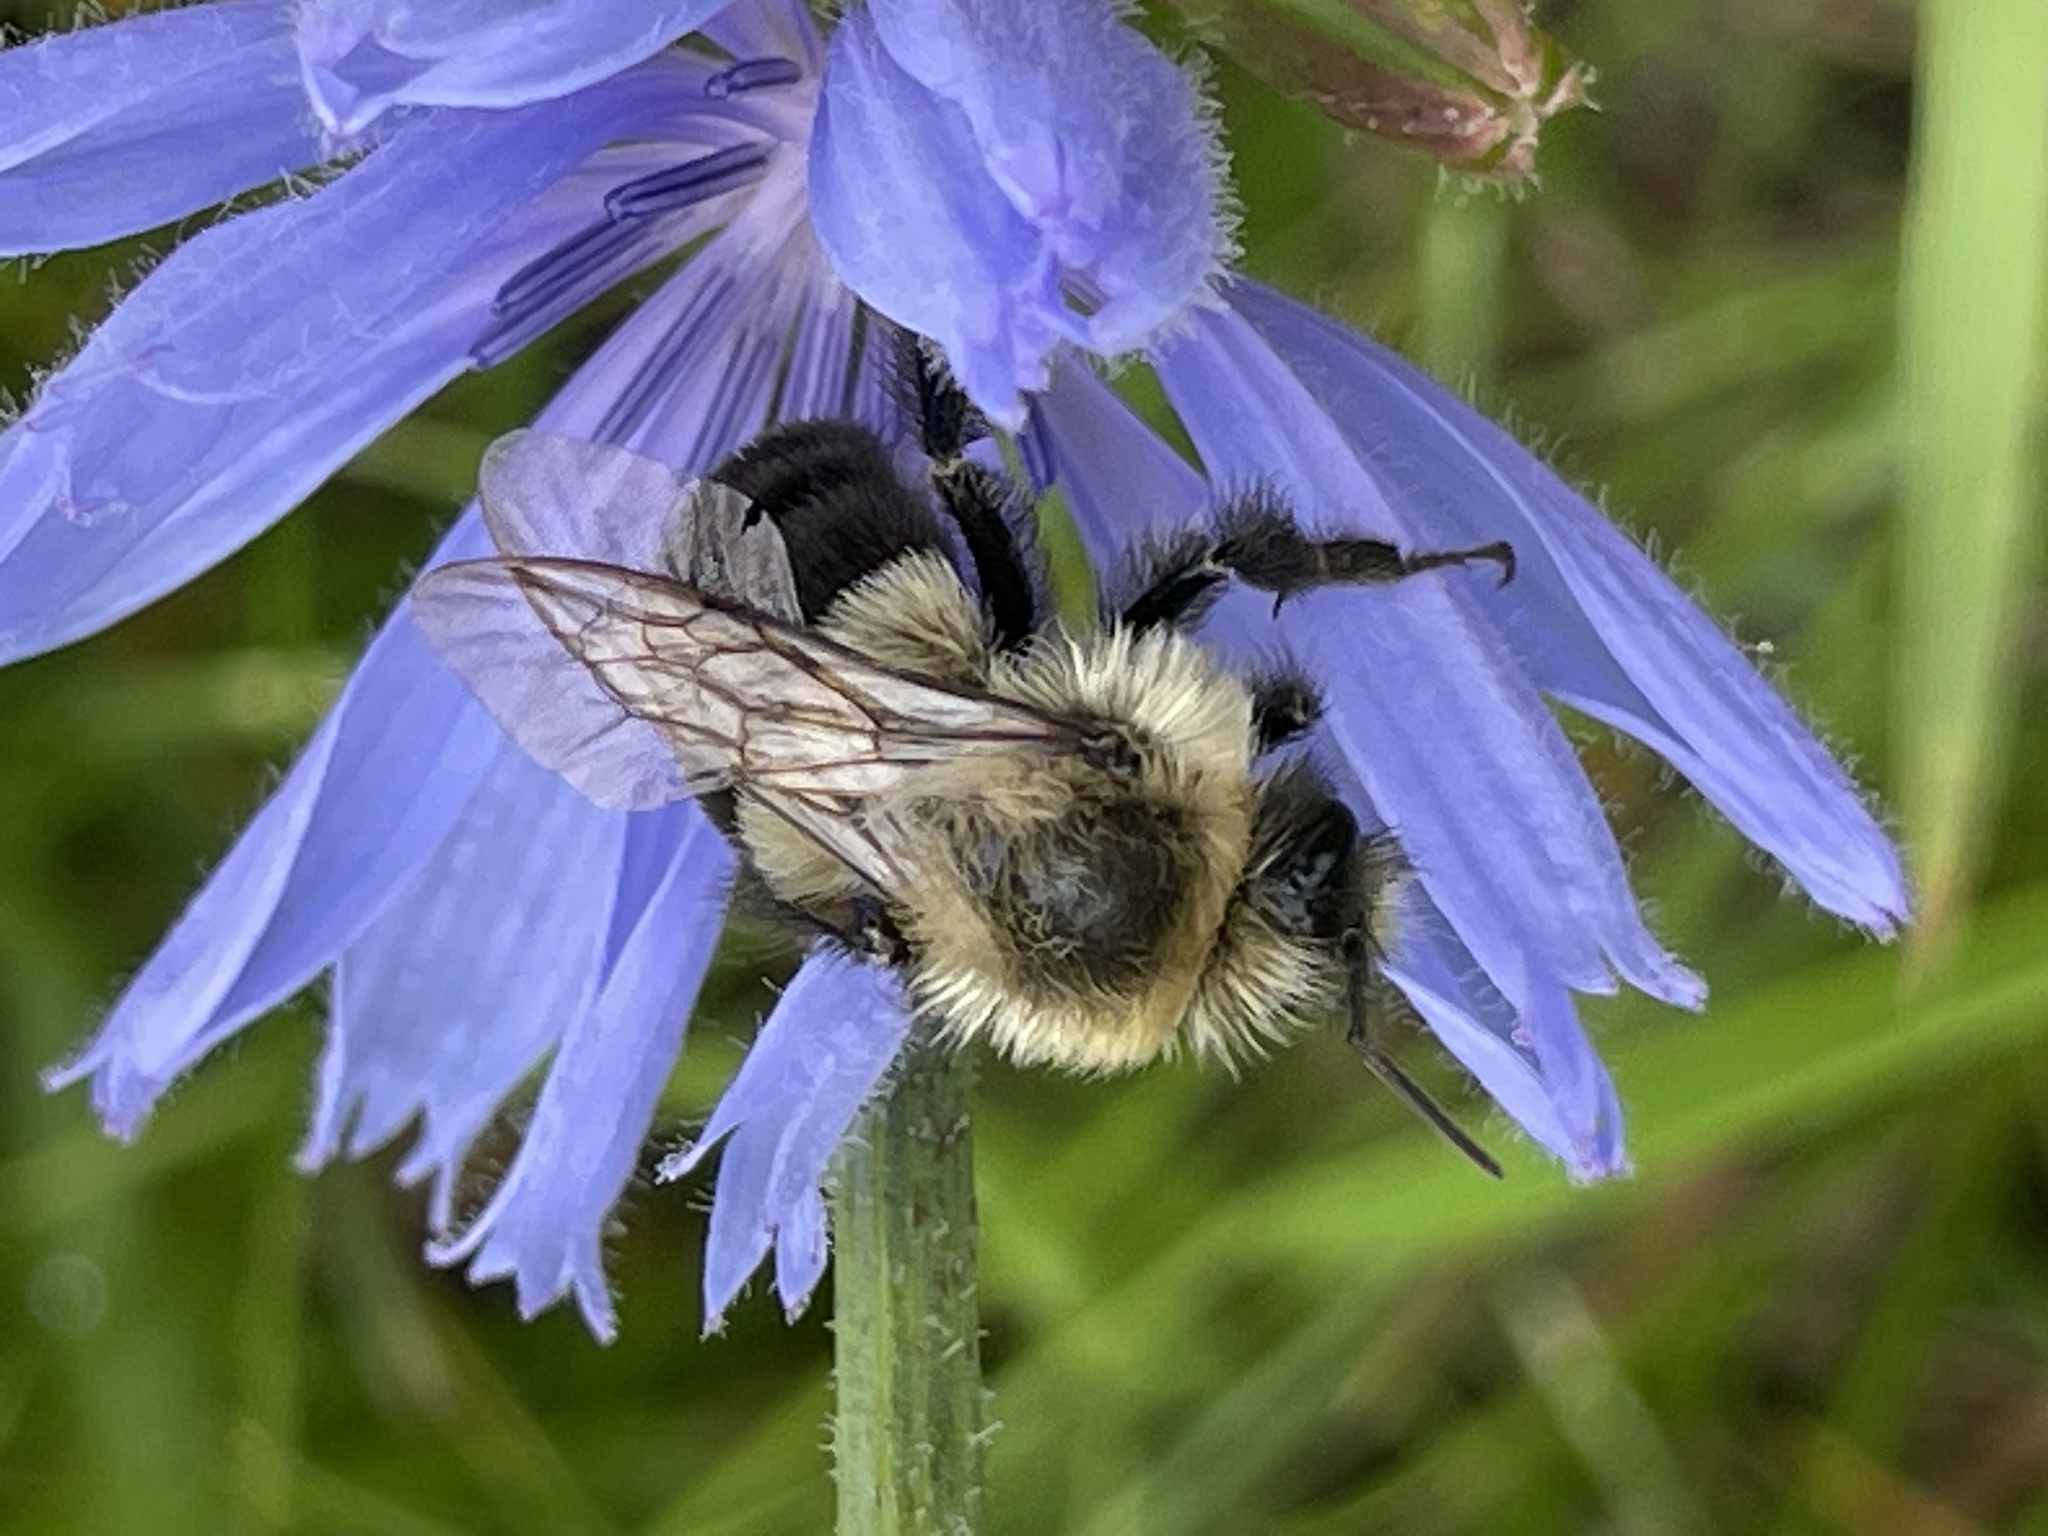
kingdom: Animalia
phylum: Arthropoda
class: Insecta
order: Hymenoptera
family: Apidae
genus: Bombus
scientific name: Bombus impatiens
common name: Common eastern bumble bee
